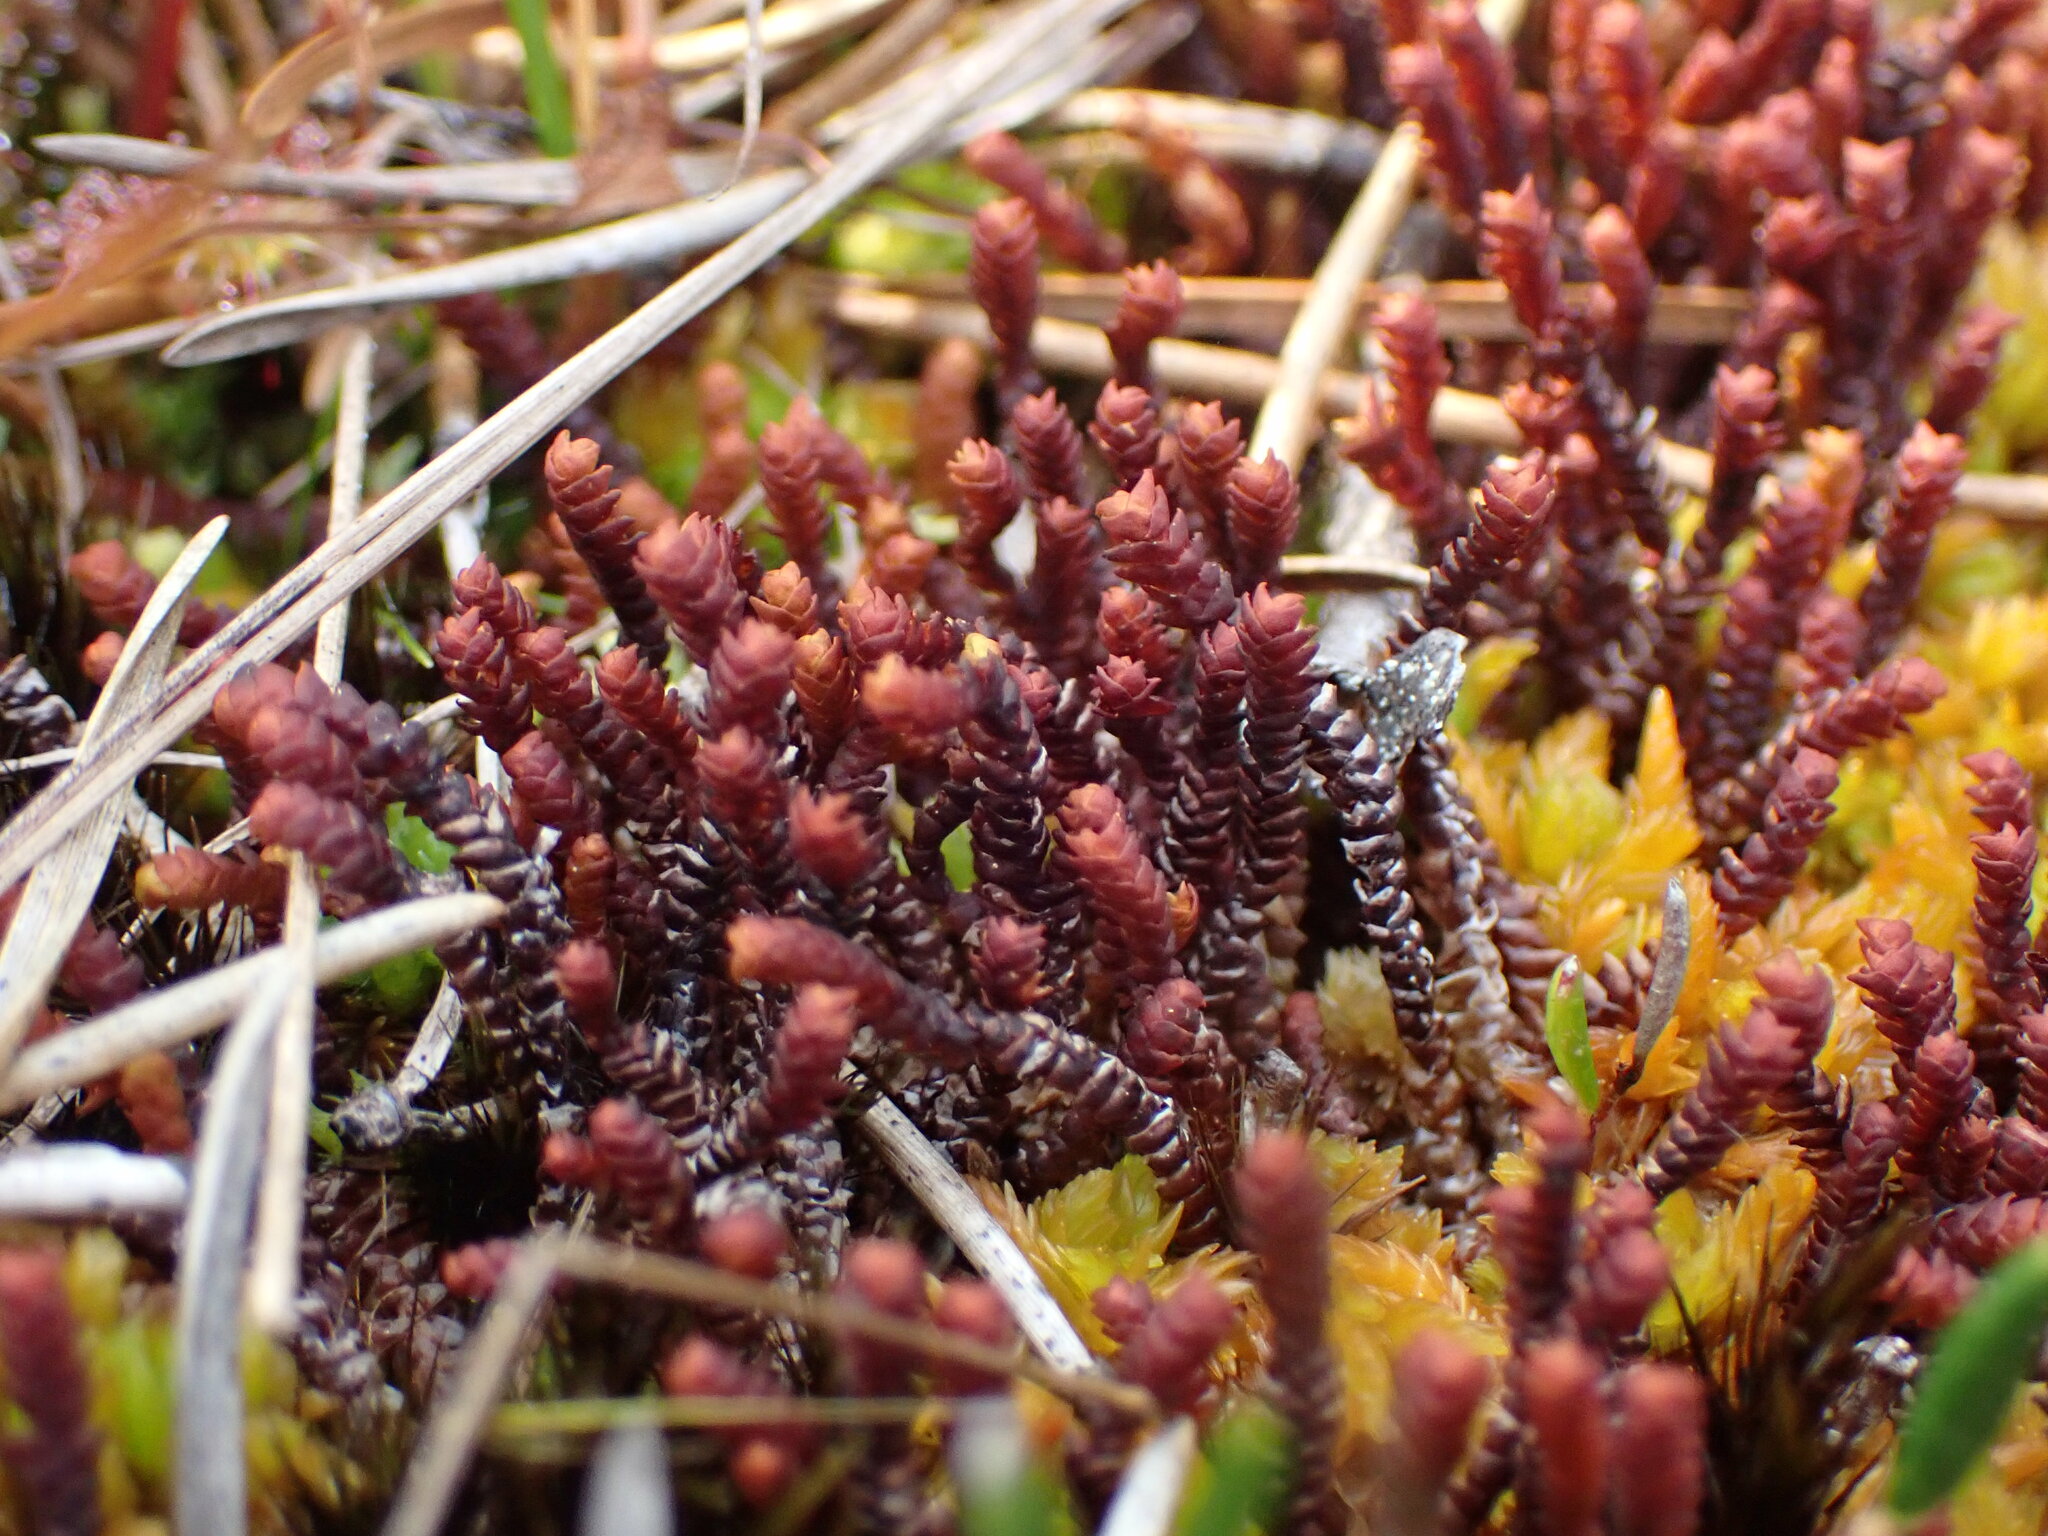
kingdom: Plantae
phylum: Marchantiophyta
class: Jungermanniopsida
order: Pleuroziales
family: Pleuroziaceae
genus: Pleurozia
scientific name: Pleurozia purpurea
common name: Purple spoonwort
